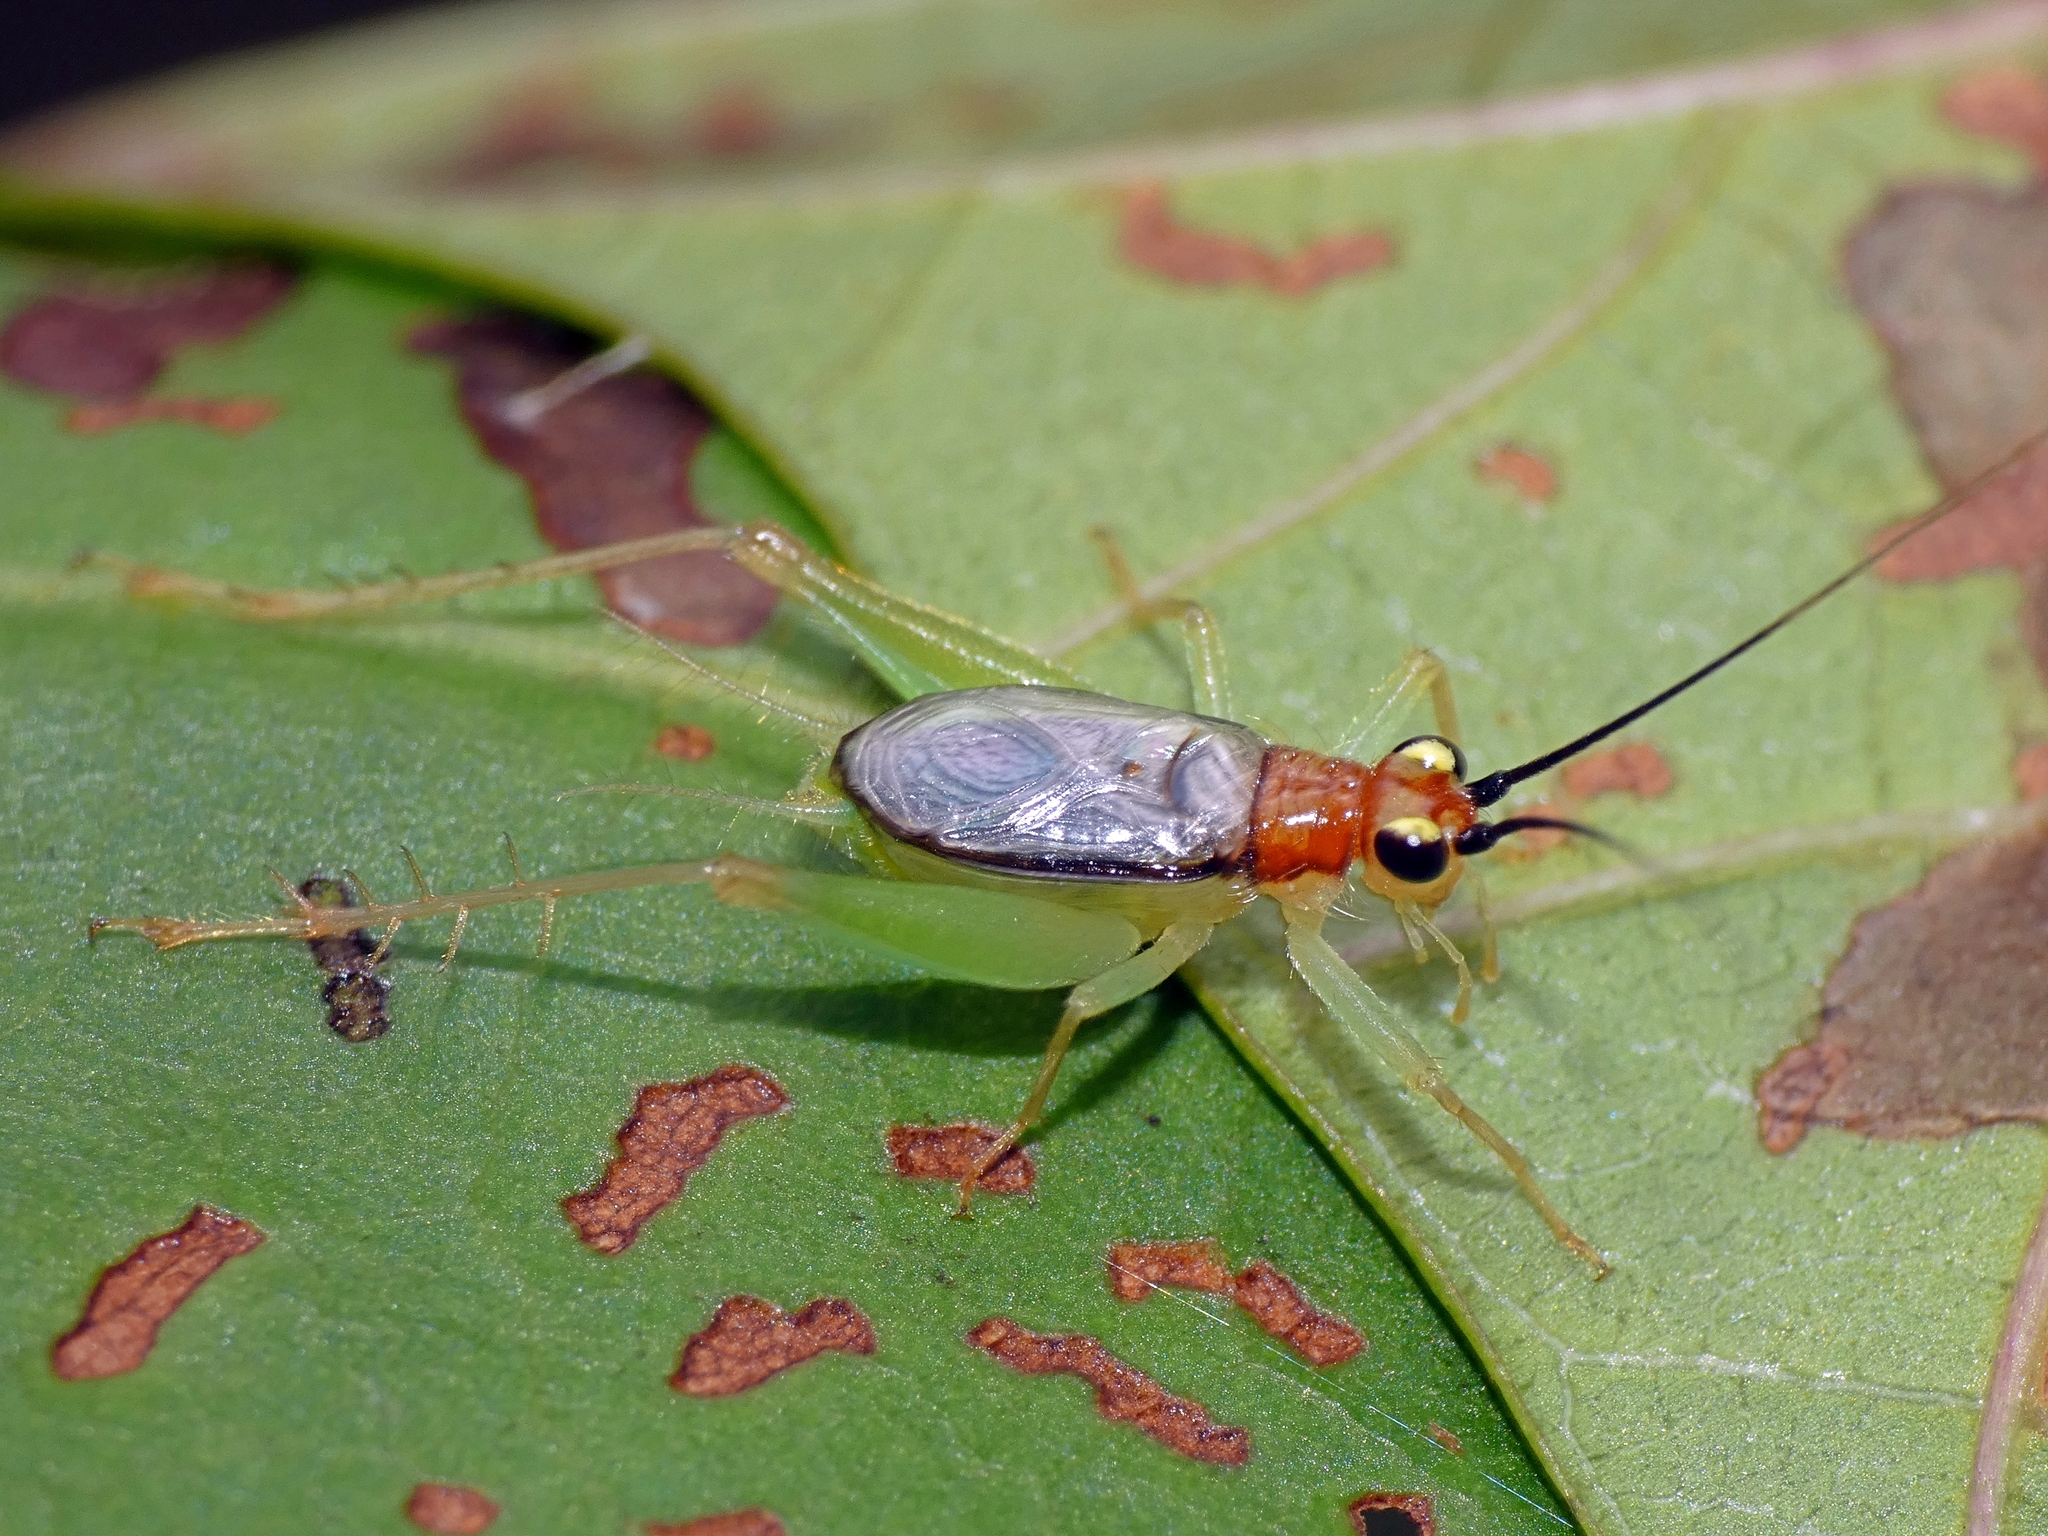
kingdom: Animalia
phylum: Arthropoda
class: Insecta
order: Orthoptera
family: Trigonidiidae
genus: Anaxipha
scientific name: Anaxipha fuscocinctum
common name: Brown bell
